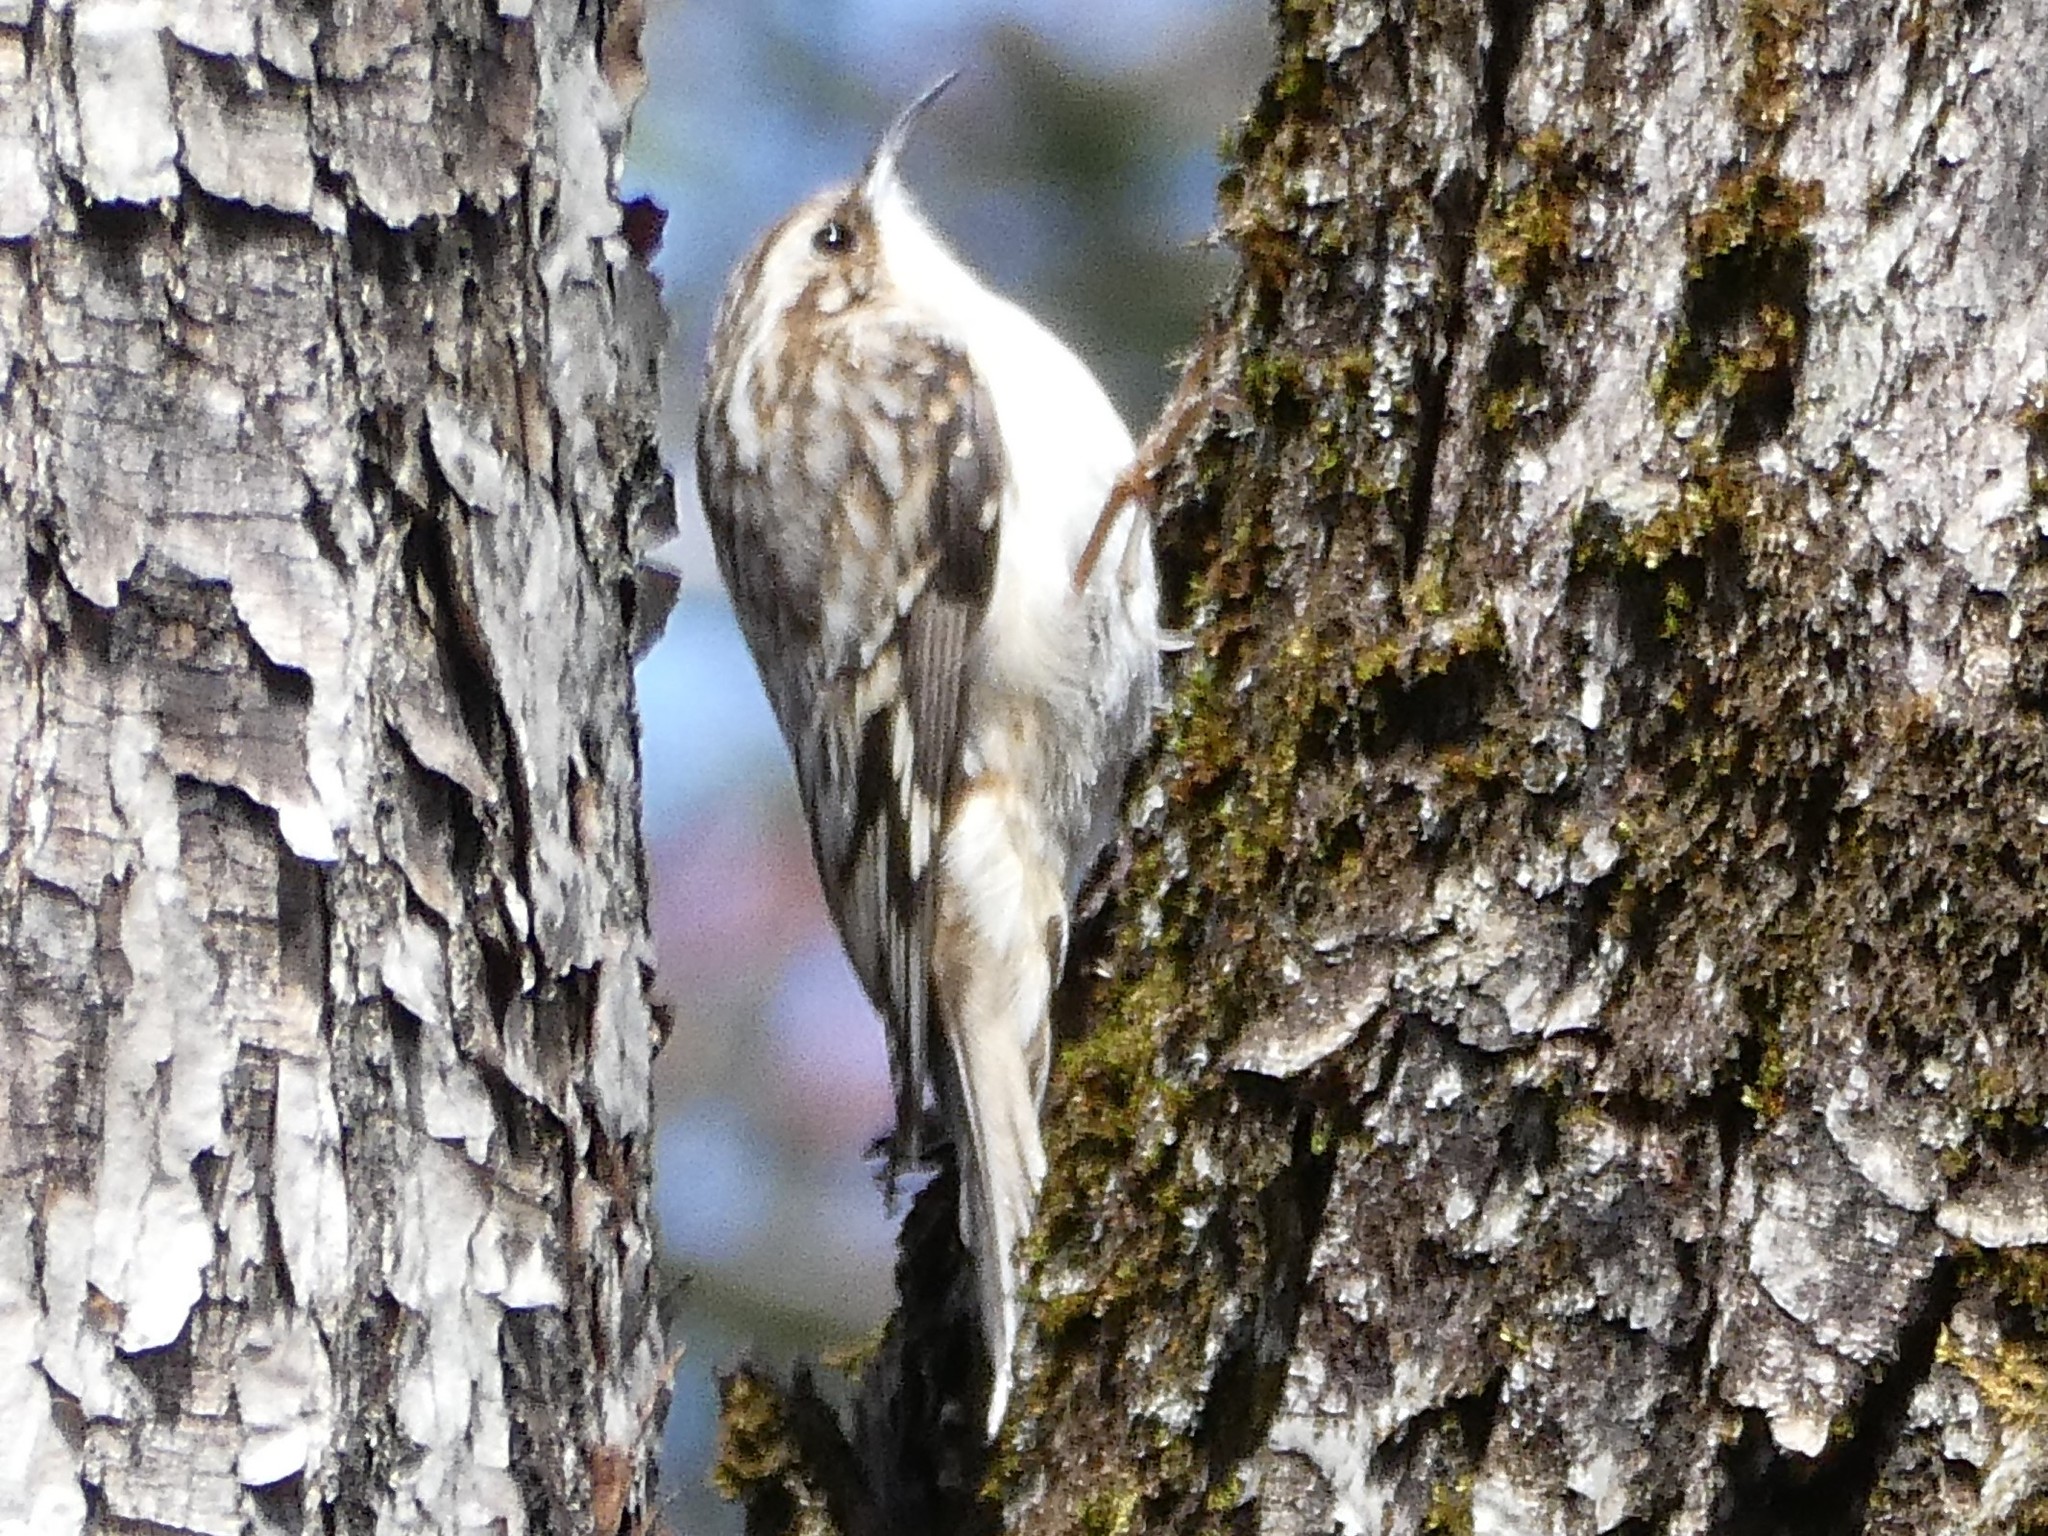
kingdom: Animalia
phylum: Chordata
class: Aves
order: Passeriformes
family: Certhiidae
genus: Certhia
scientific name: Certhia americana
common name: Brown creeper
